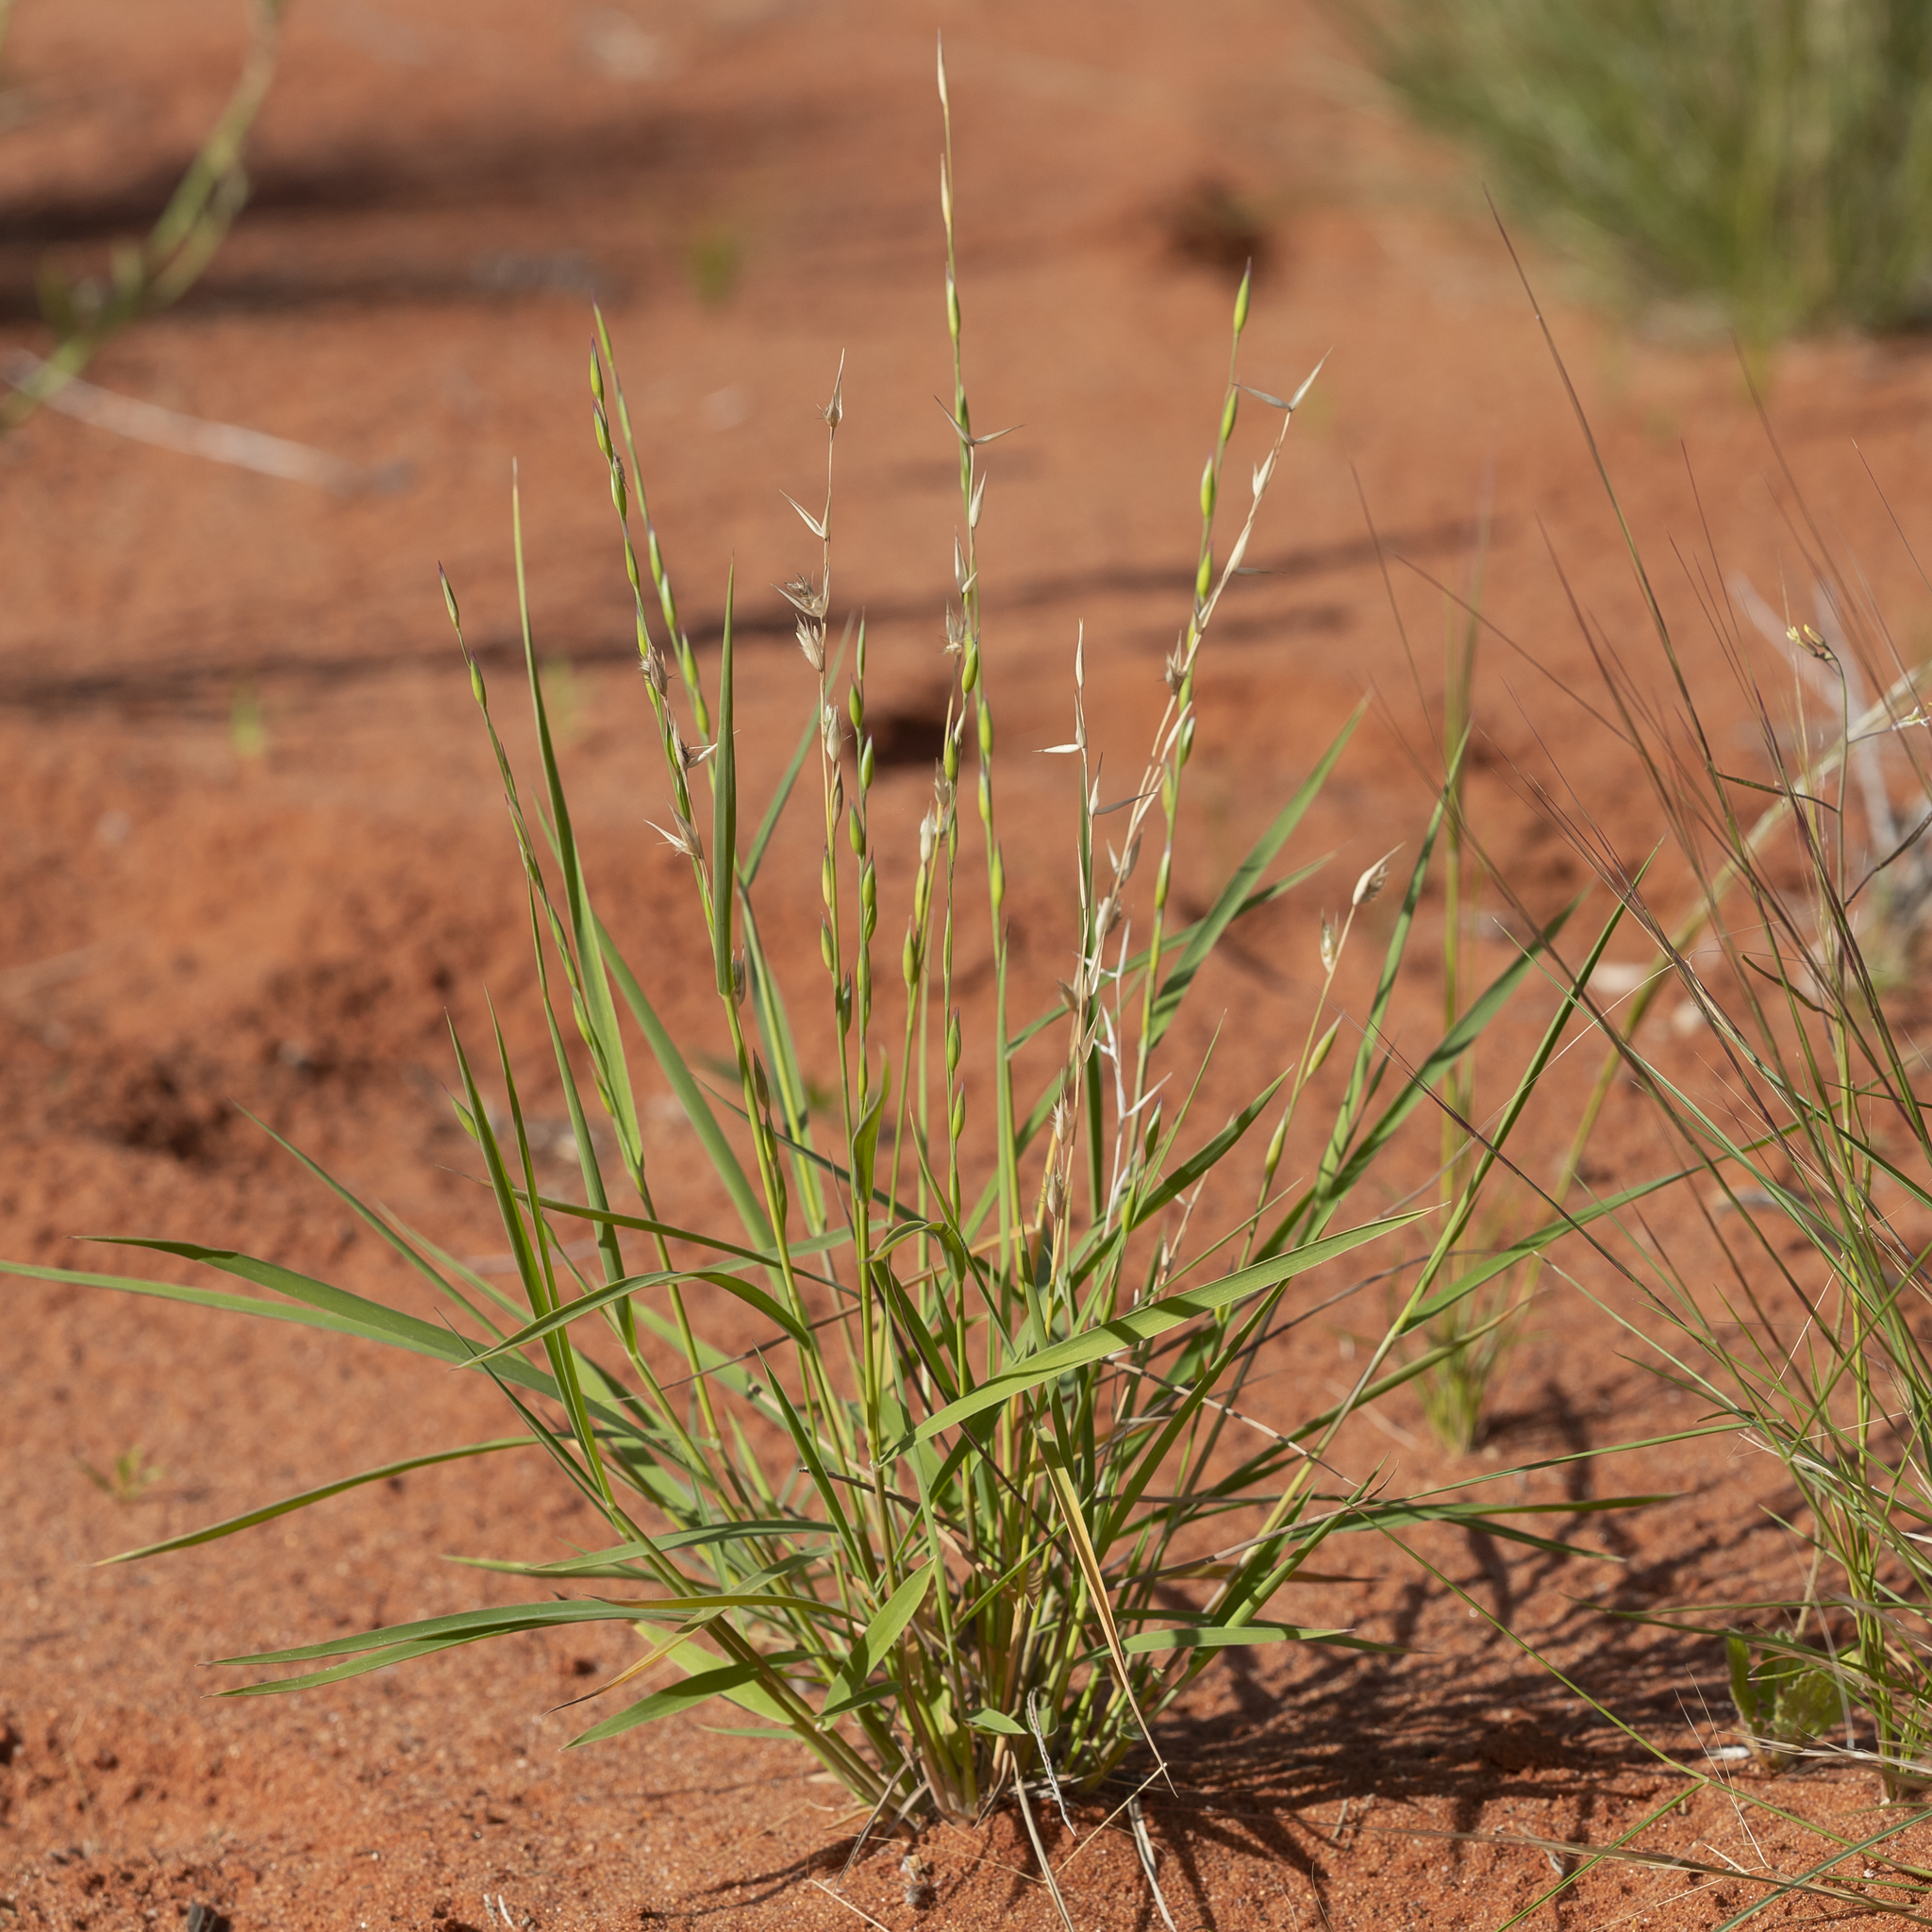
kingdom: Plantae
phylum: Tracheophyta
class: Liliopsida
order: Poales
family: Poaceae
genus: Monachather
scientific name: Monachather paradoxus
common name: Bandicoot grass
